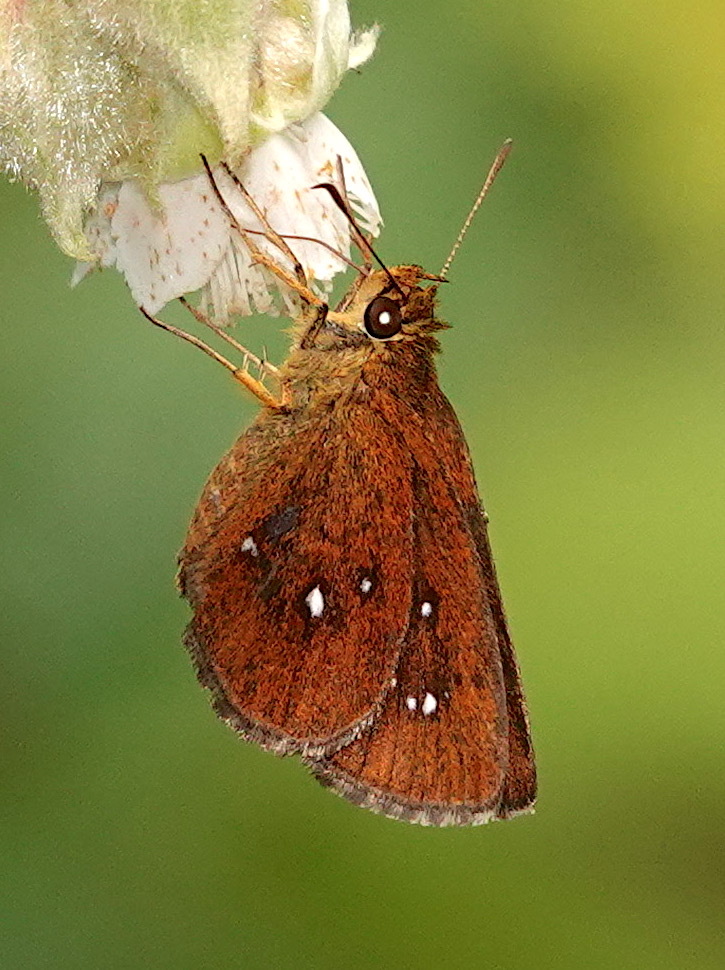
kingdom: Animalia
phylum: Arthropoda
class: Insecta
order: Lepidoptera
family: Hesperiidae
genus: Iambrix
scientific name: Iambrix salsala
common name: Chestnut bob
